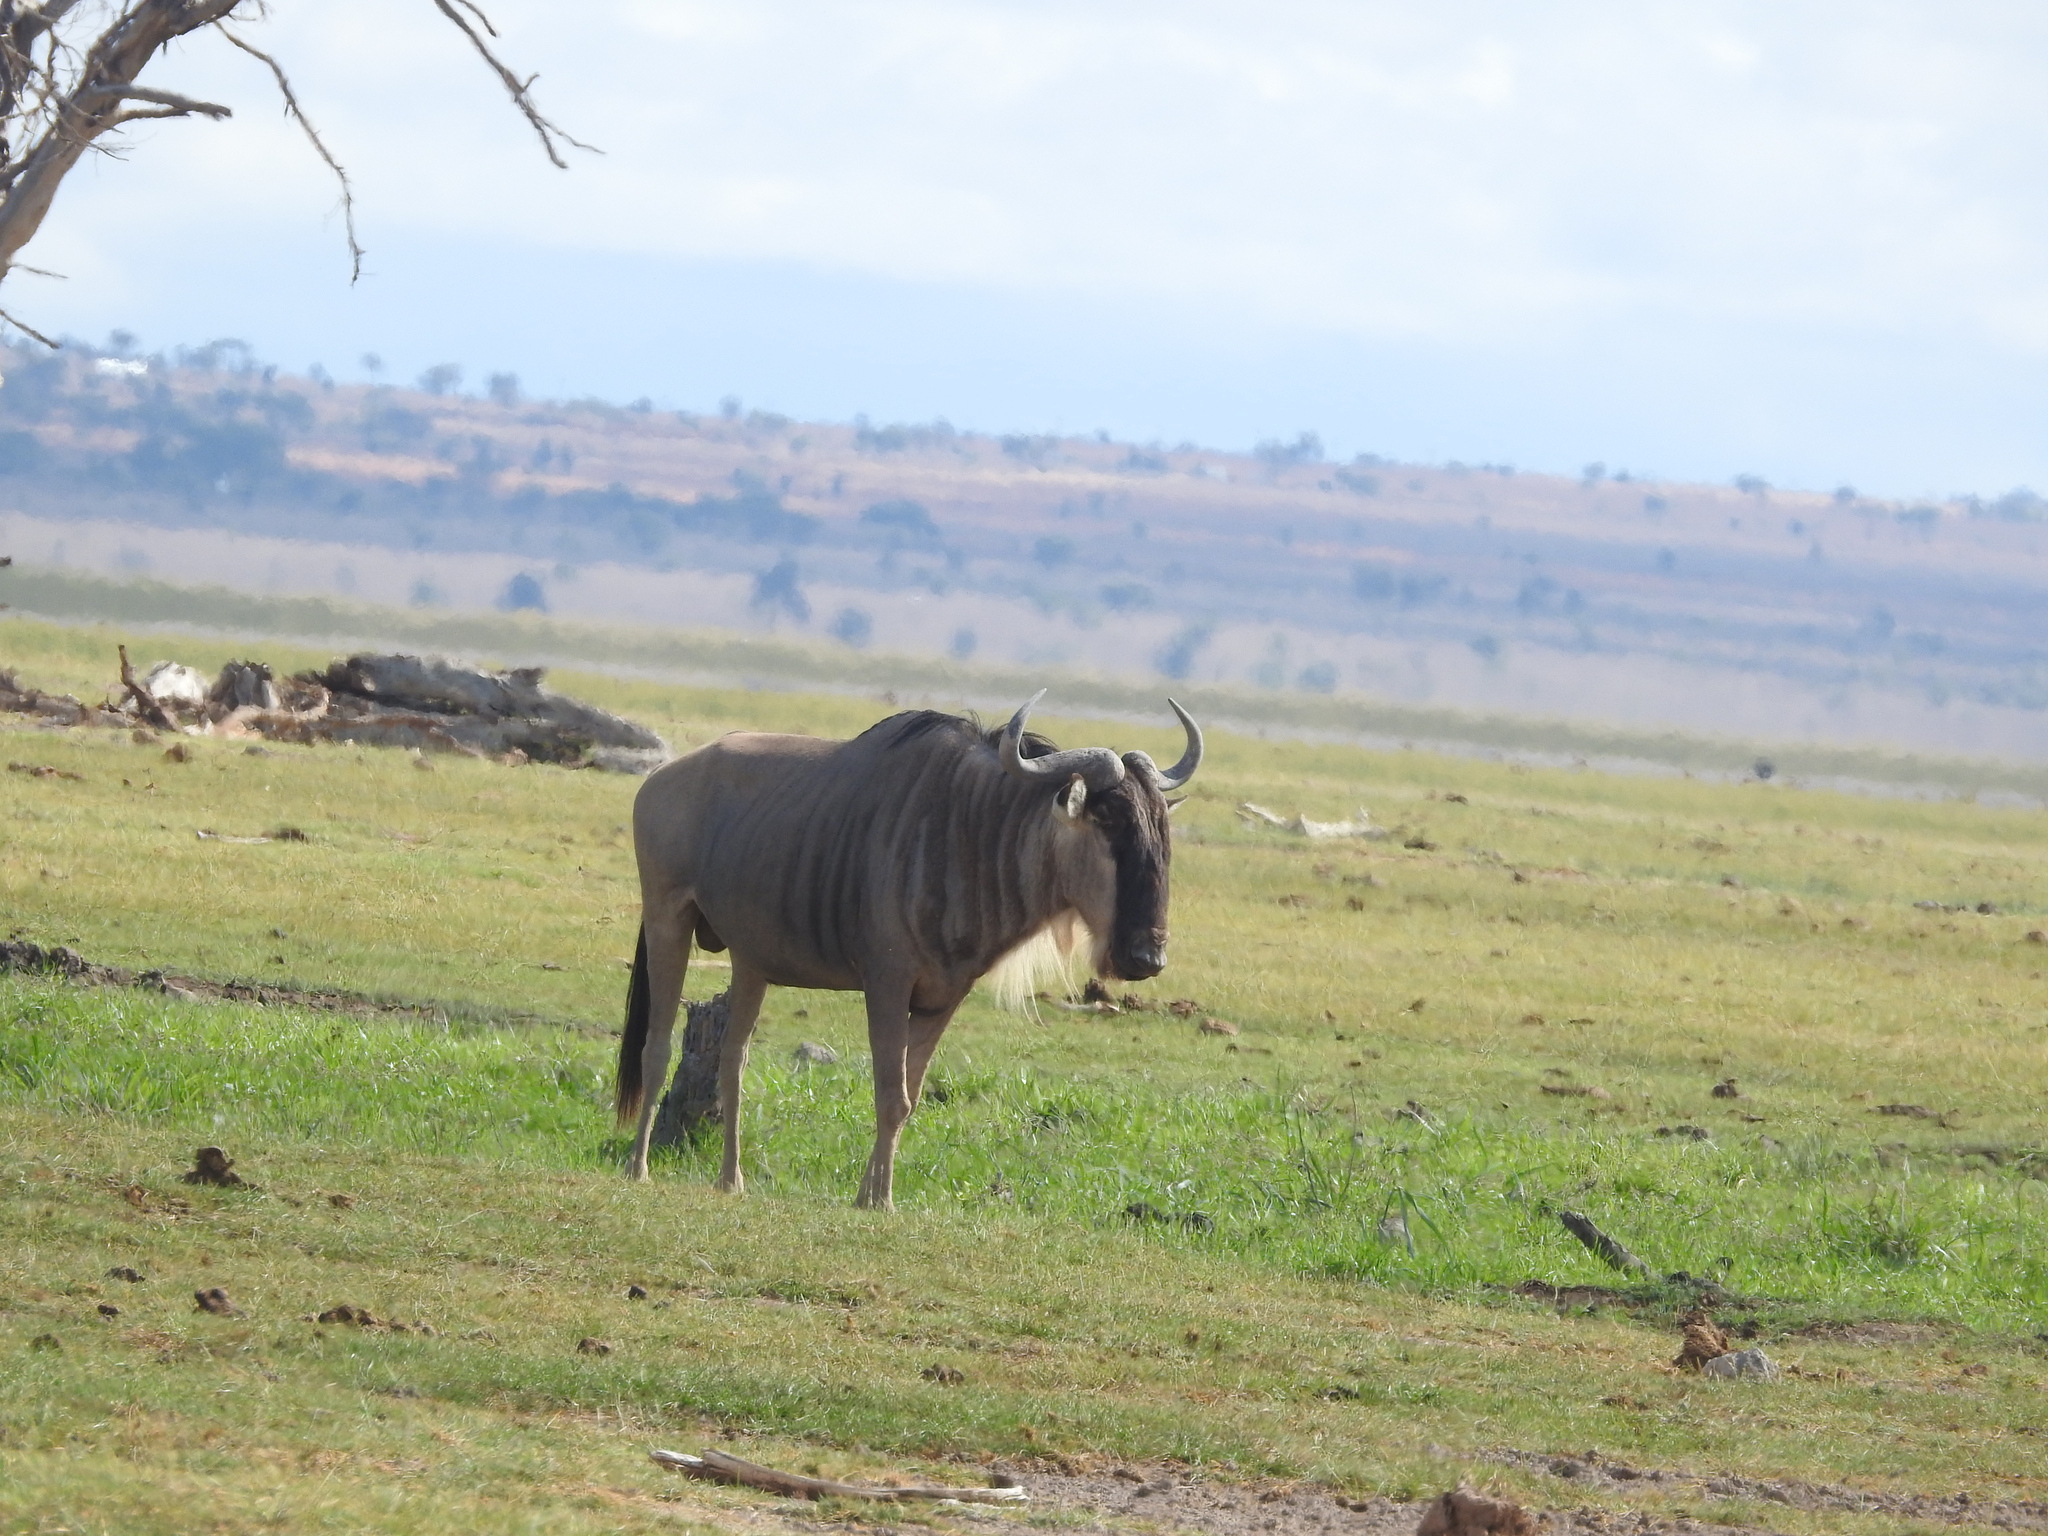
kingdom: Animalia
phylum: Chordata
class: Mammalia
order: Artiodactyla
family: Bovidae
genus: Connochaetes
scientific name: Connochaetes taurinus
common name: Blue wildebeest
